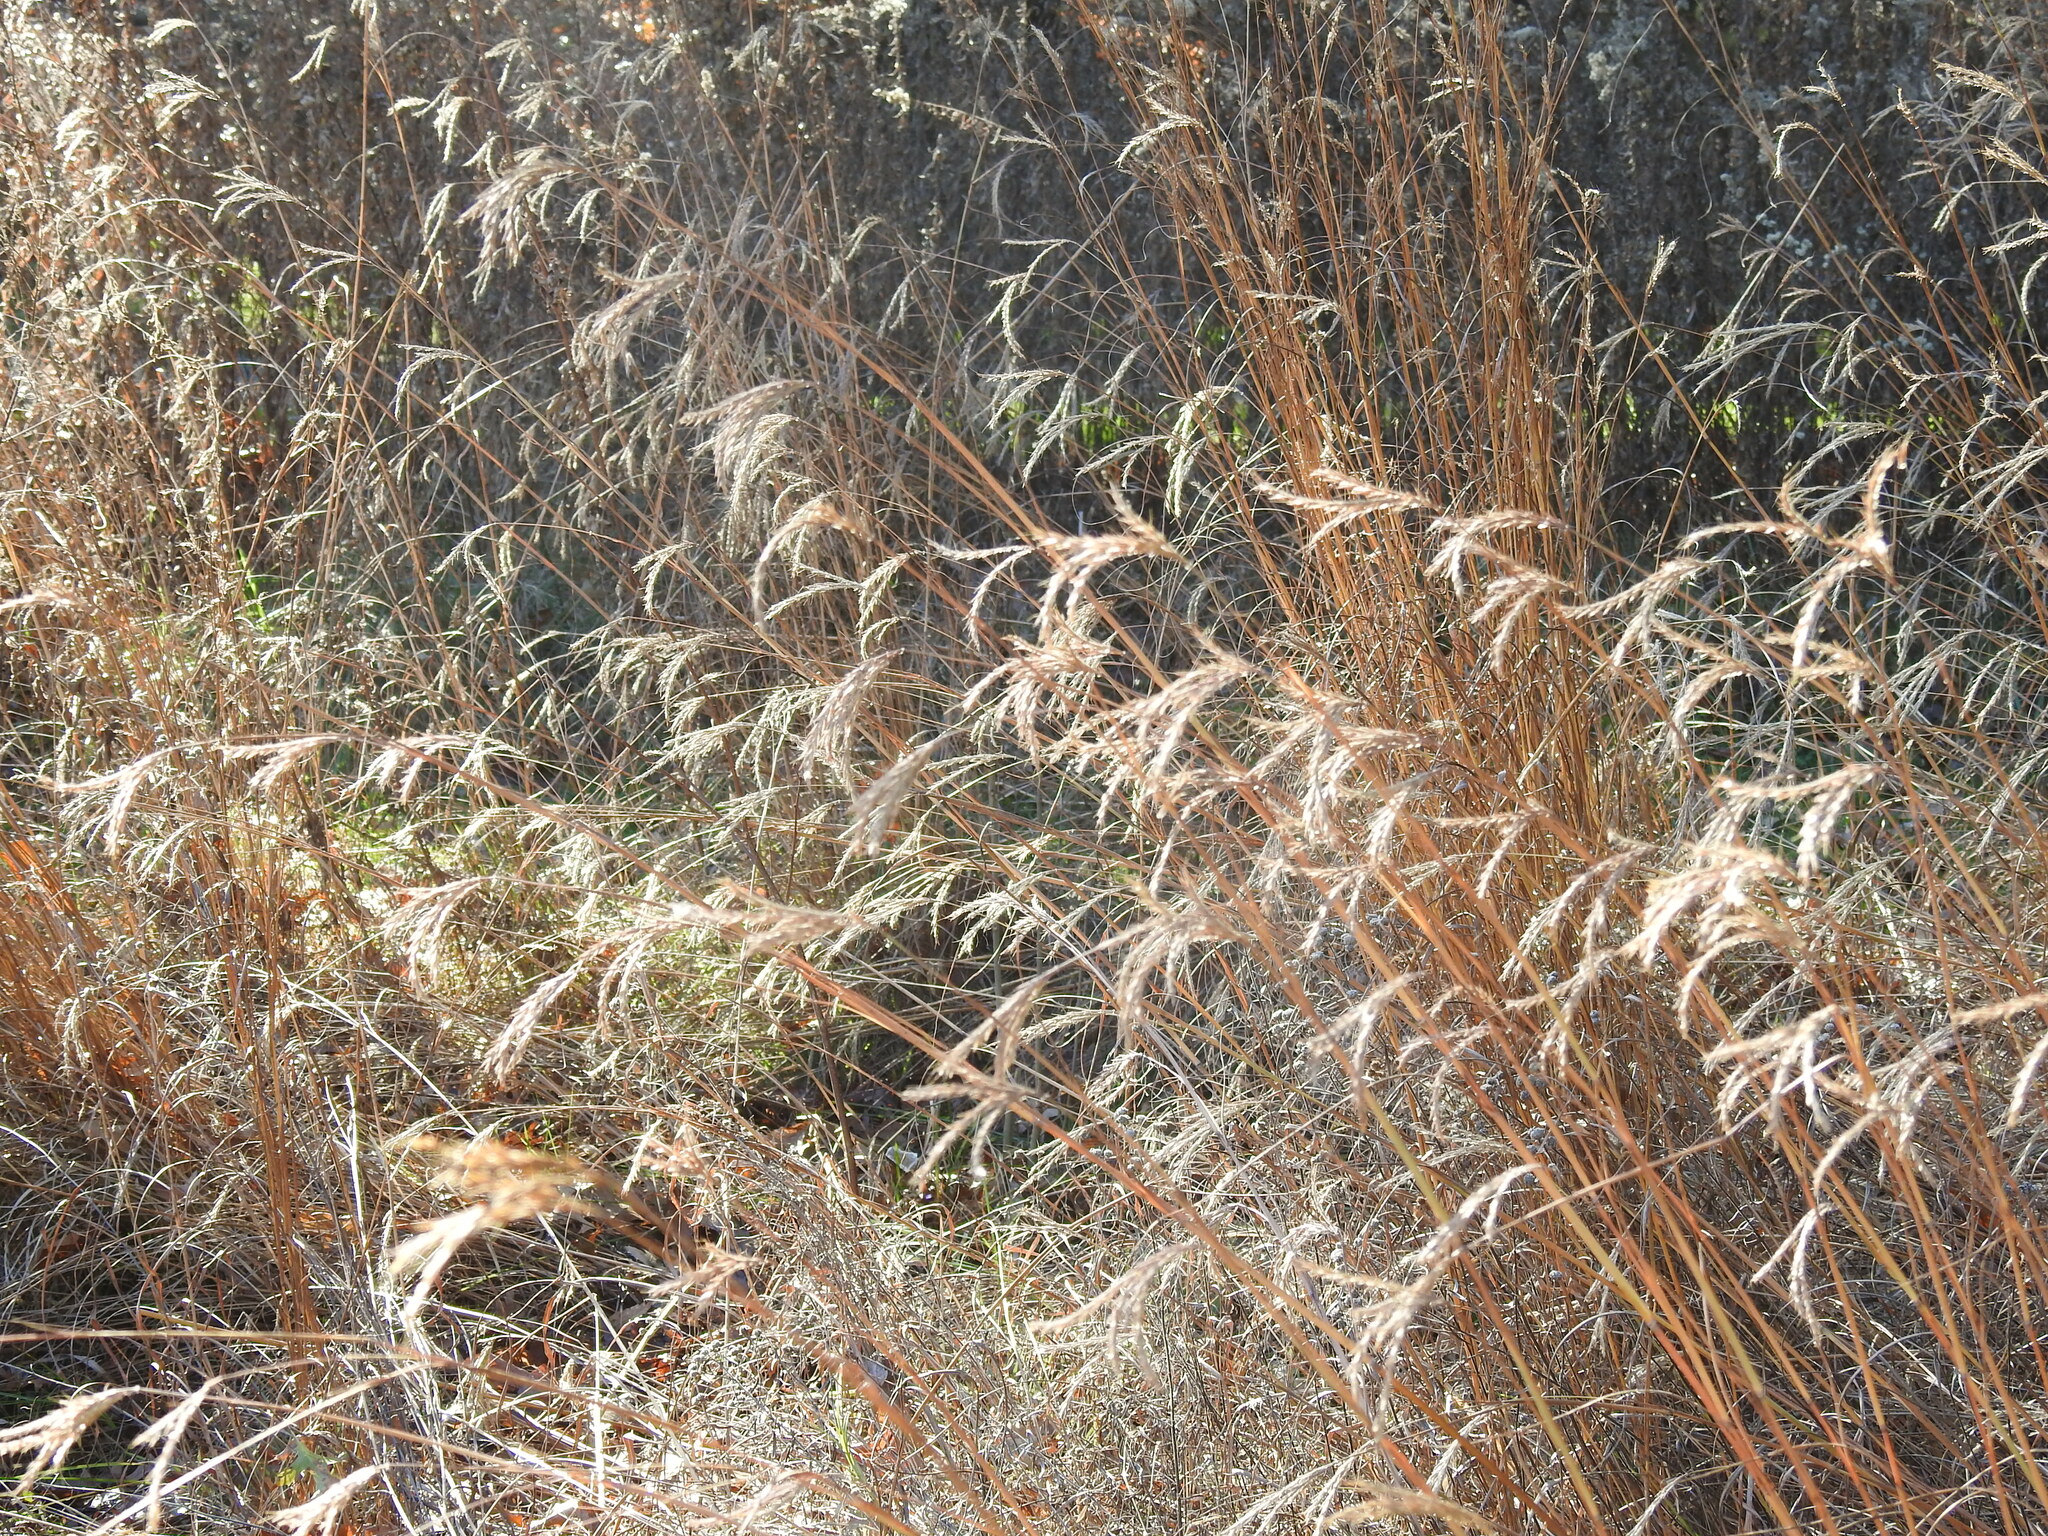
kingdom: Plantae
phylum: Tracheophyta
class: Liliopsida
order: Poales
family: Poaceae
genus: Andropogon
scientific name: Andropogon gerardi
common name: Big bluestem
